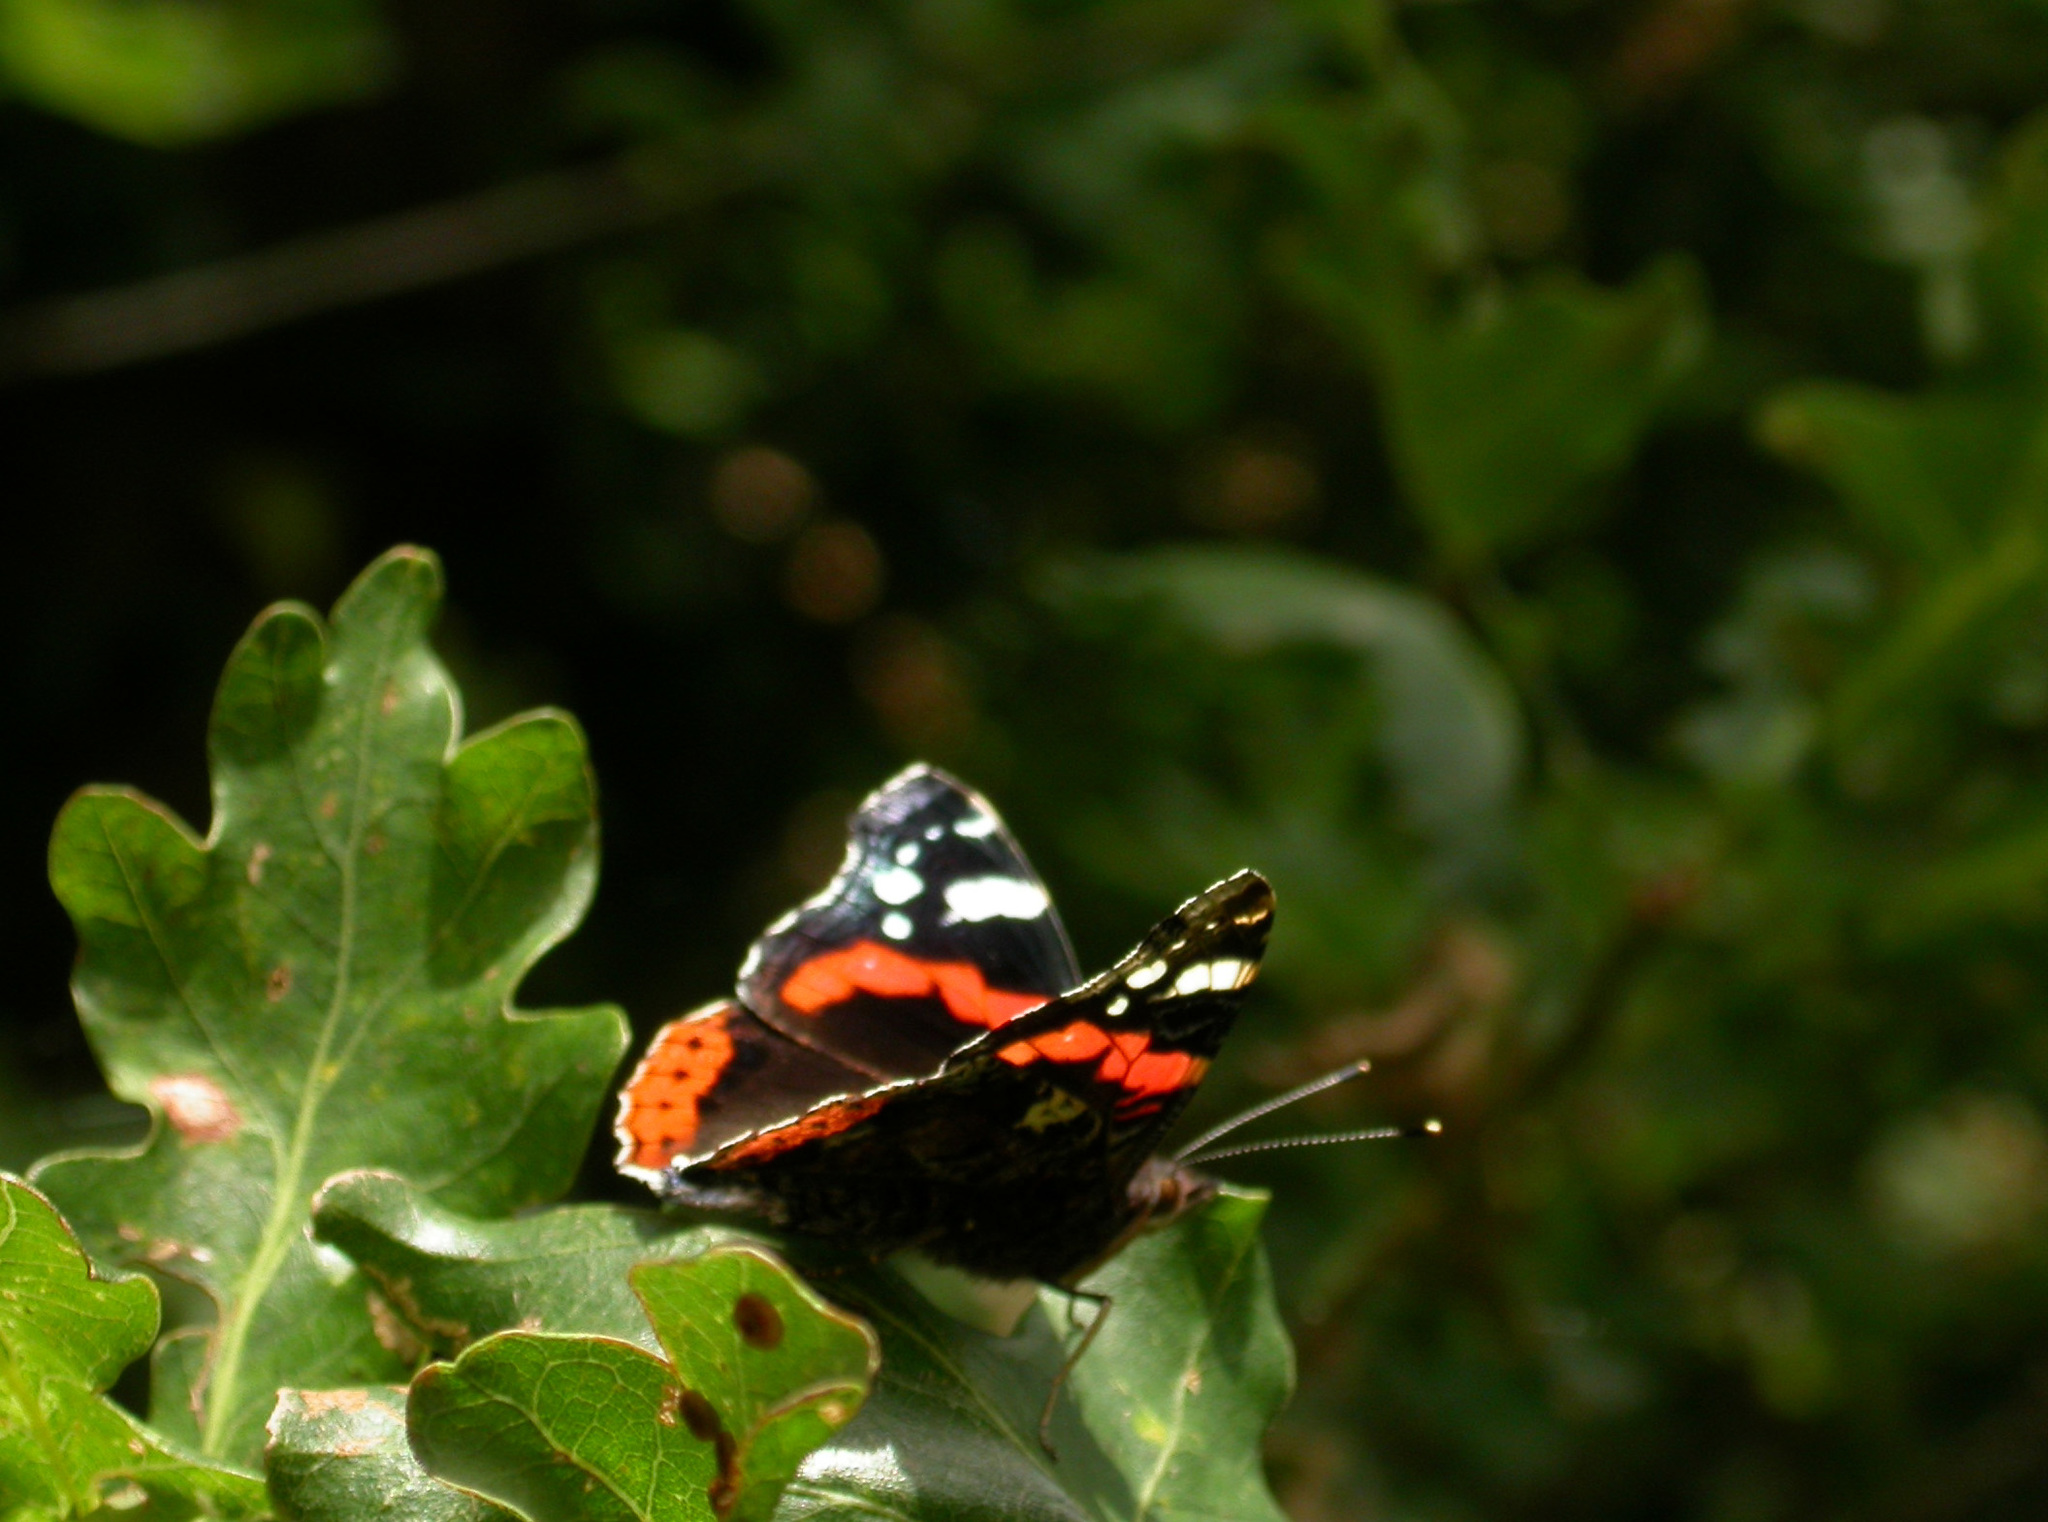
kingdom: Animalia
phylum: Arthropoda
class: Insecta
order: Lepidoptera
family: Nymphalidae
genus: Vanessa
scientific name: Vanessa atalanta
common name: Red admiral
